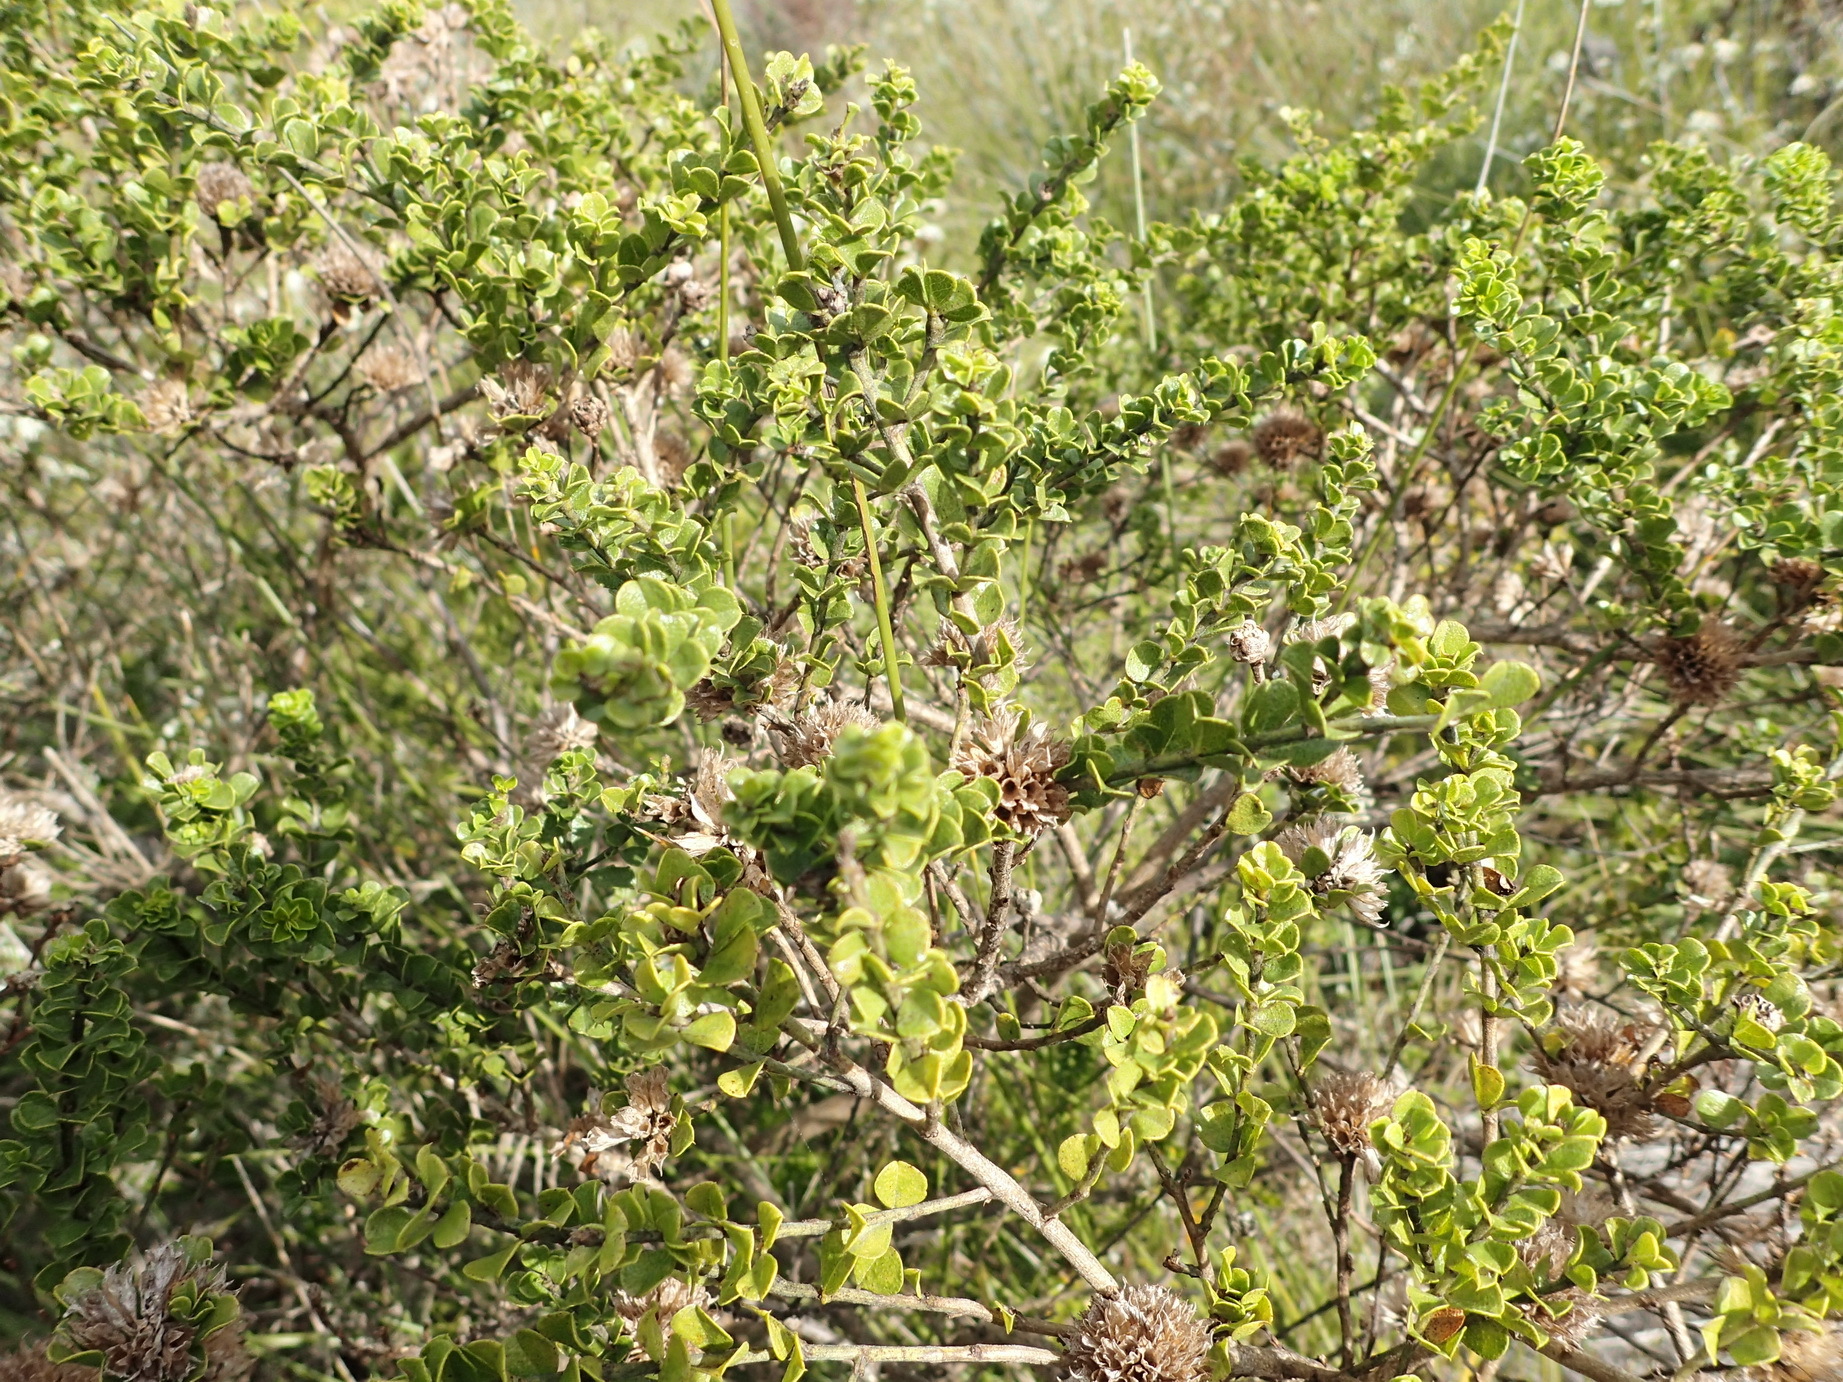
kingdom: Plantae
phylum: Tracheophyta
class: Magnoliopsida
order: Fabales
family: Fabaceae
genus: Psoralea
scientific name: Psoralea acuminata
